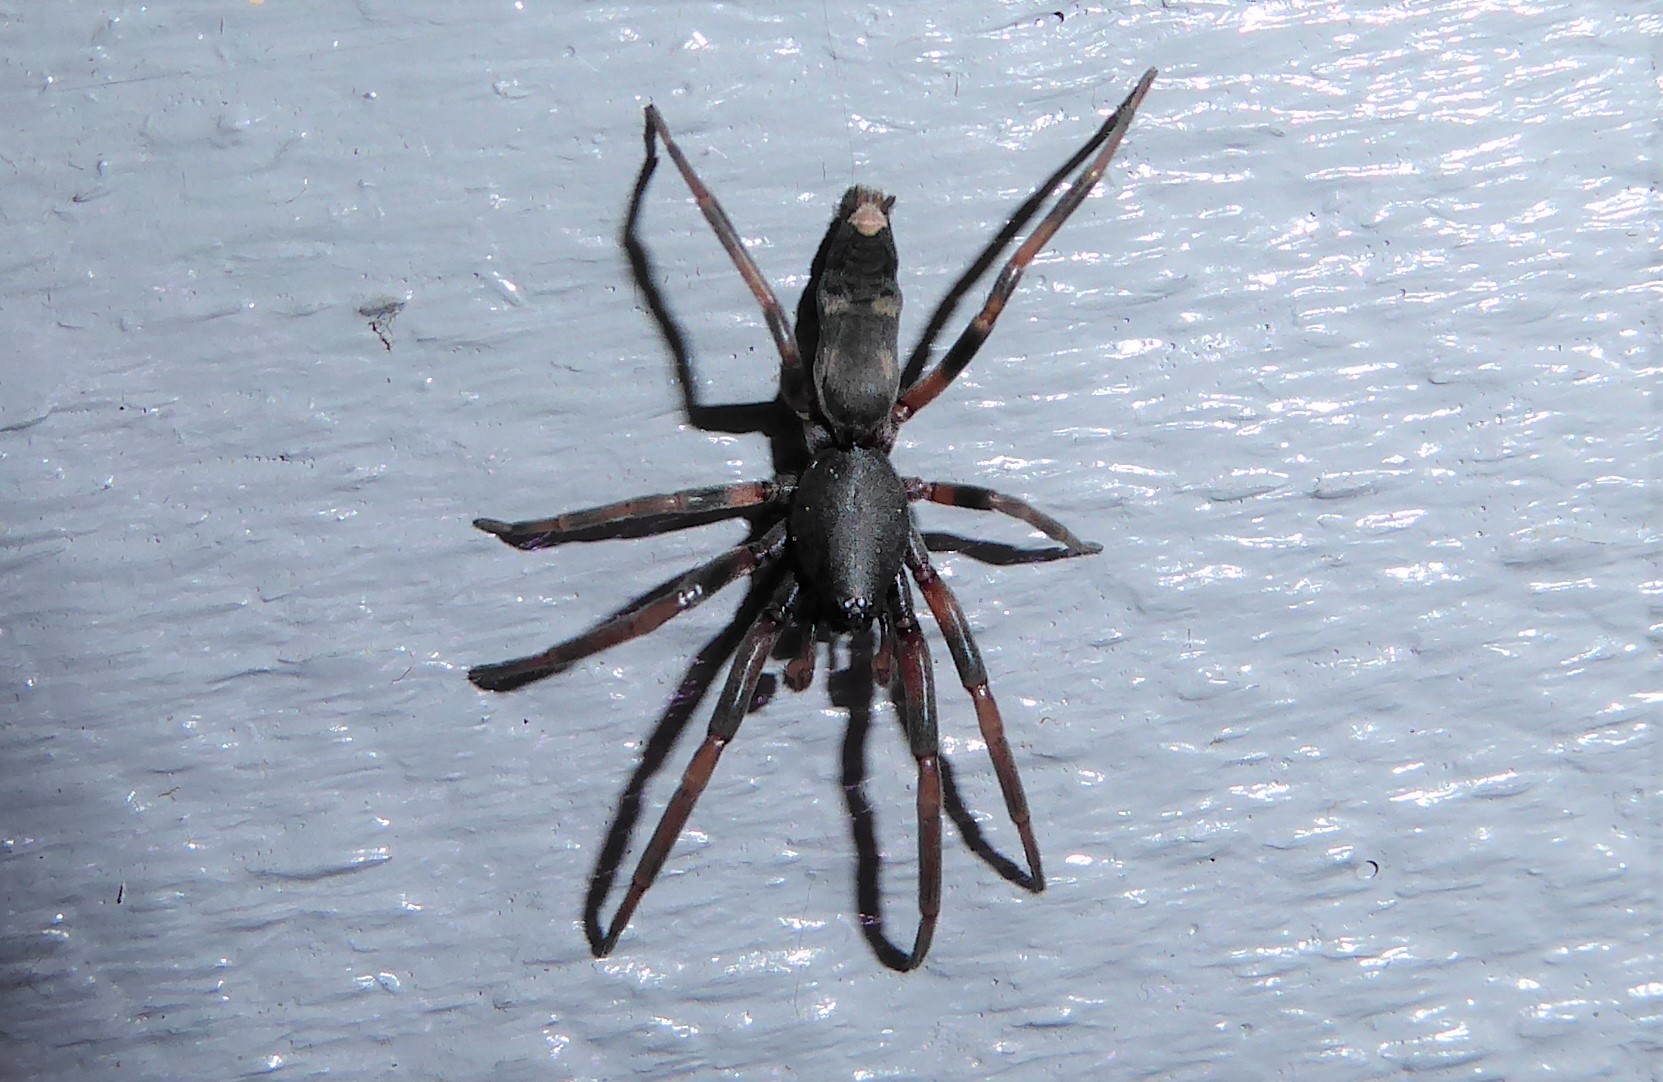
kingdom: Animalia
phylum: Arthropoda
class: Arachnida
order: Araneae
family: Lamponidae
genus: Lampona
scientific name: Lampona cylindrata
